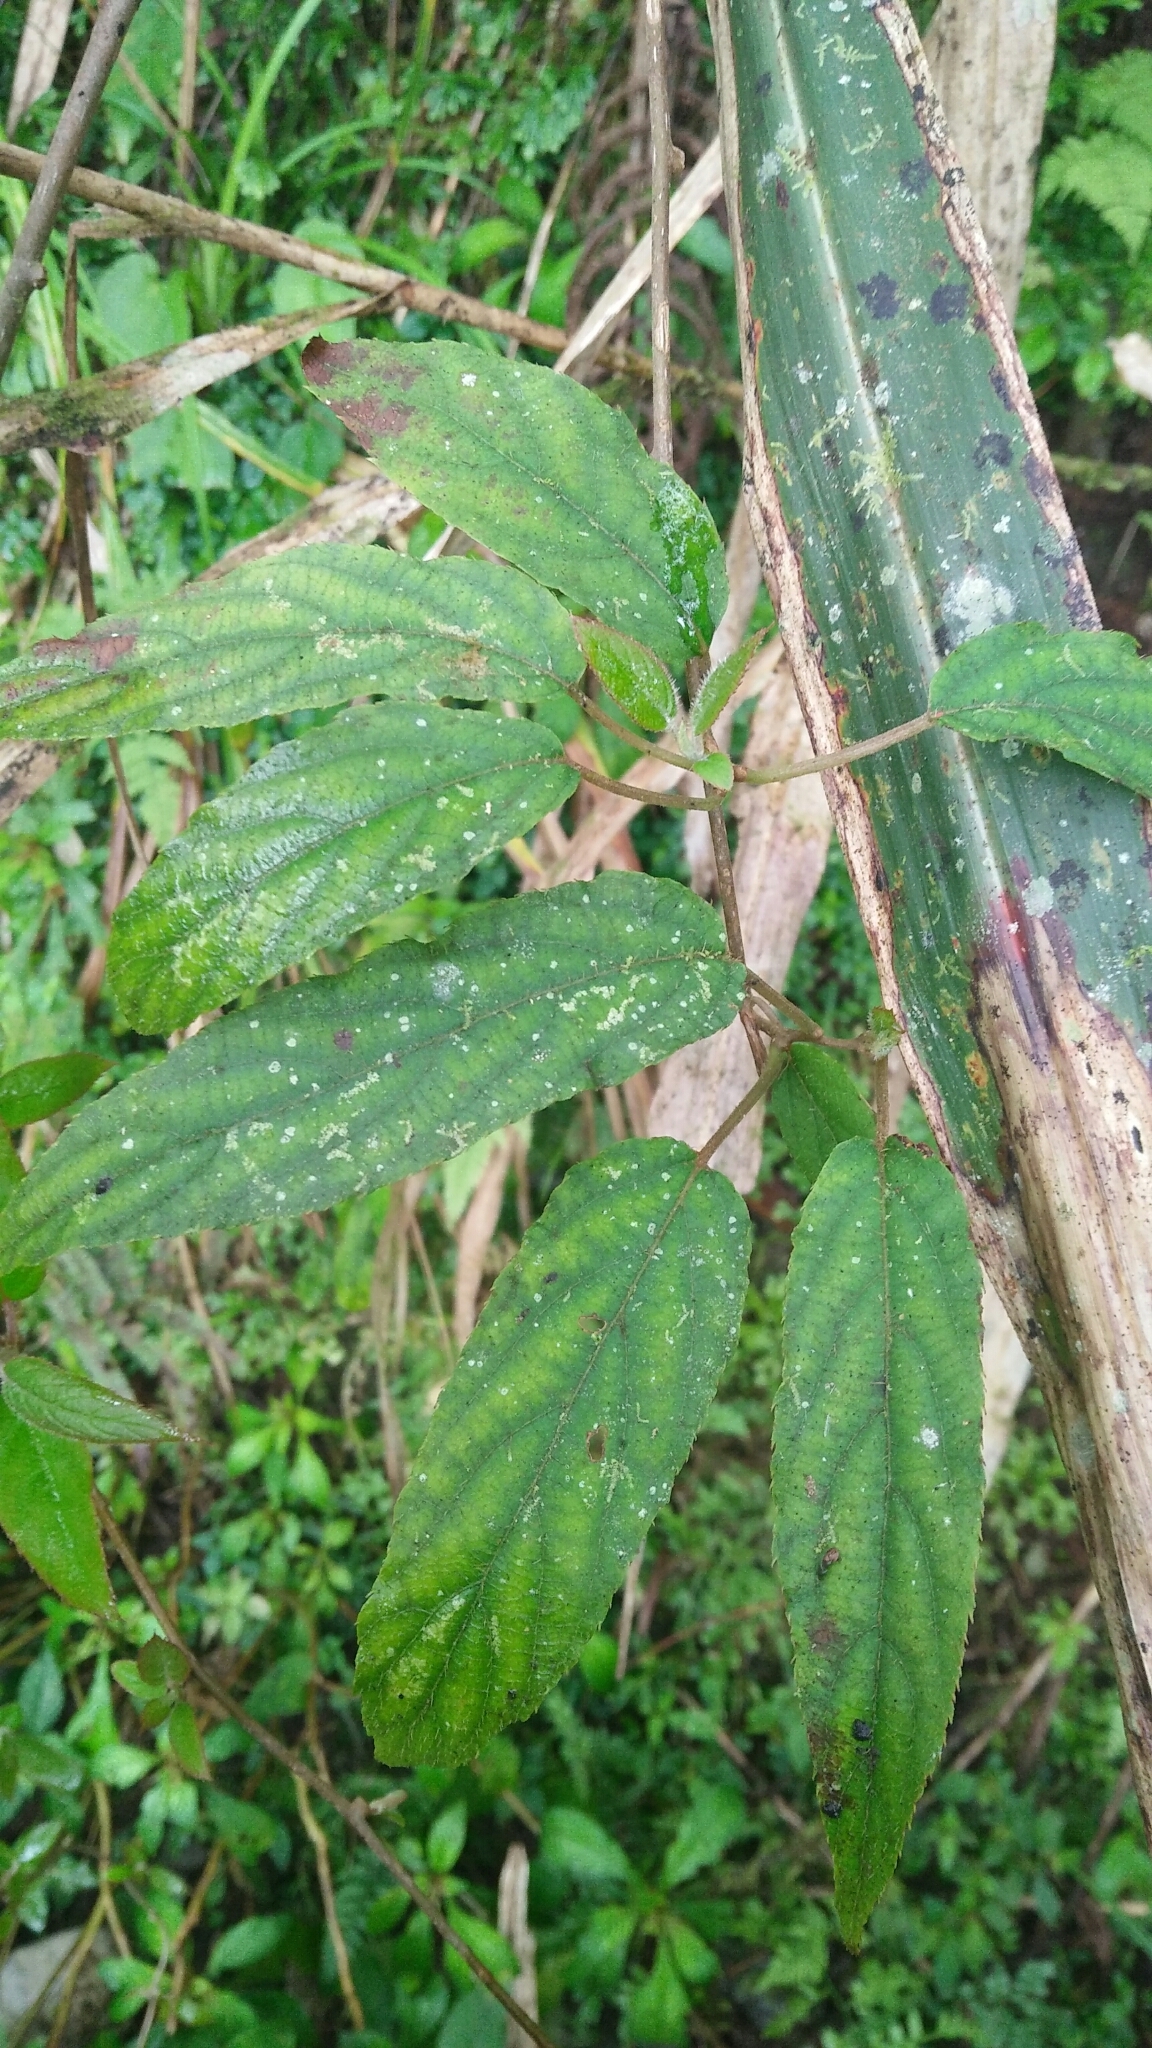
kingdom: Plantae
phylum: Tracheophyta
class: Magnoliopsida
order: Ericales
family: Actinidiaceae
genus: Actinidia
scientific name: Actinidia rufa
